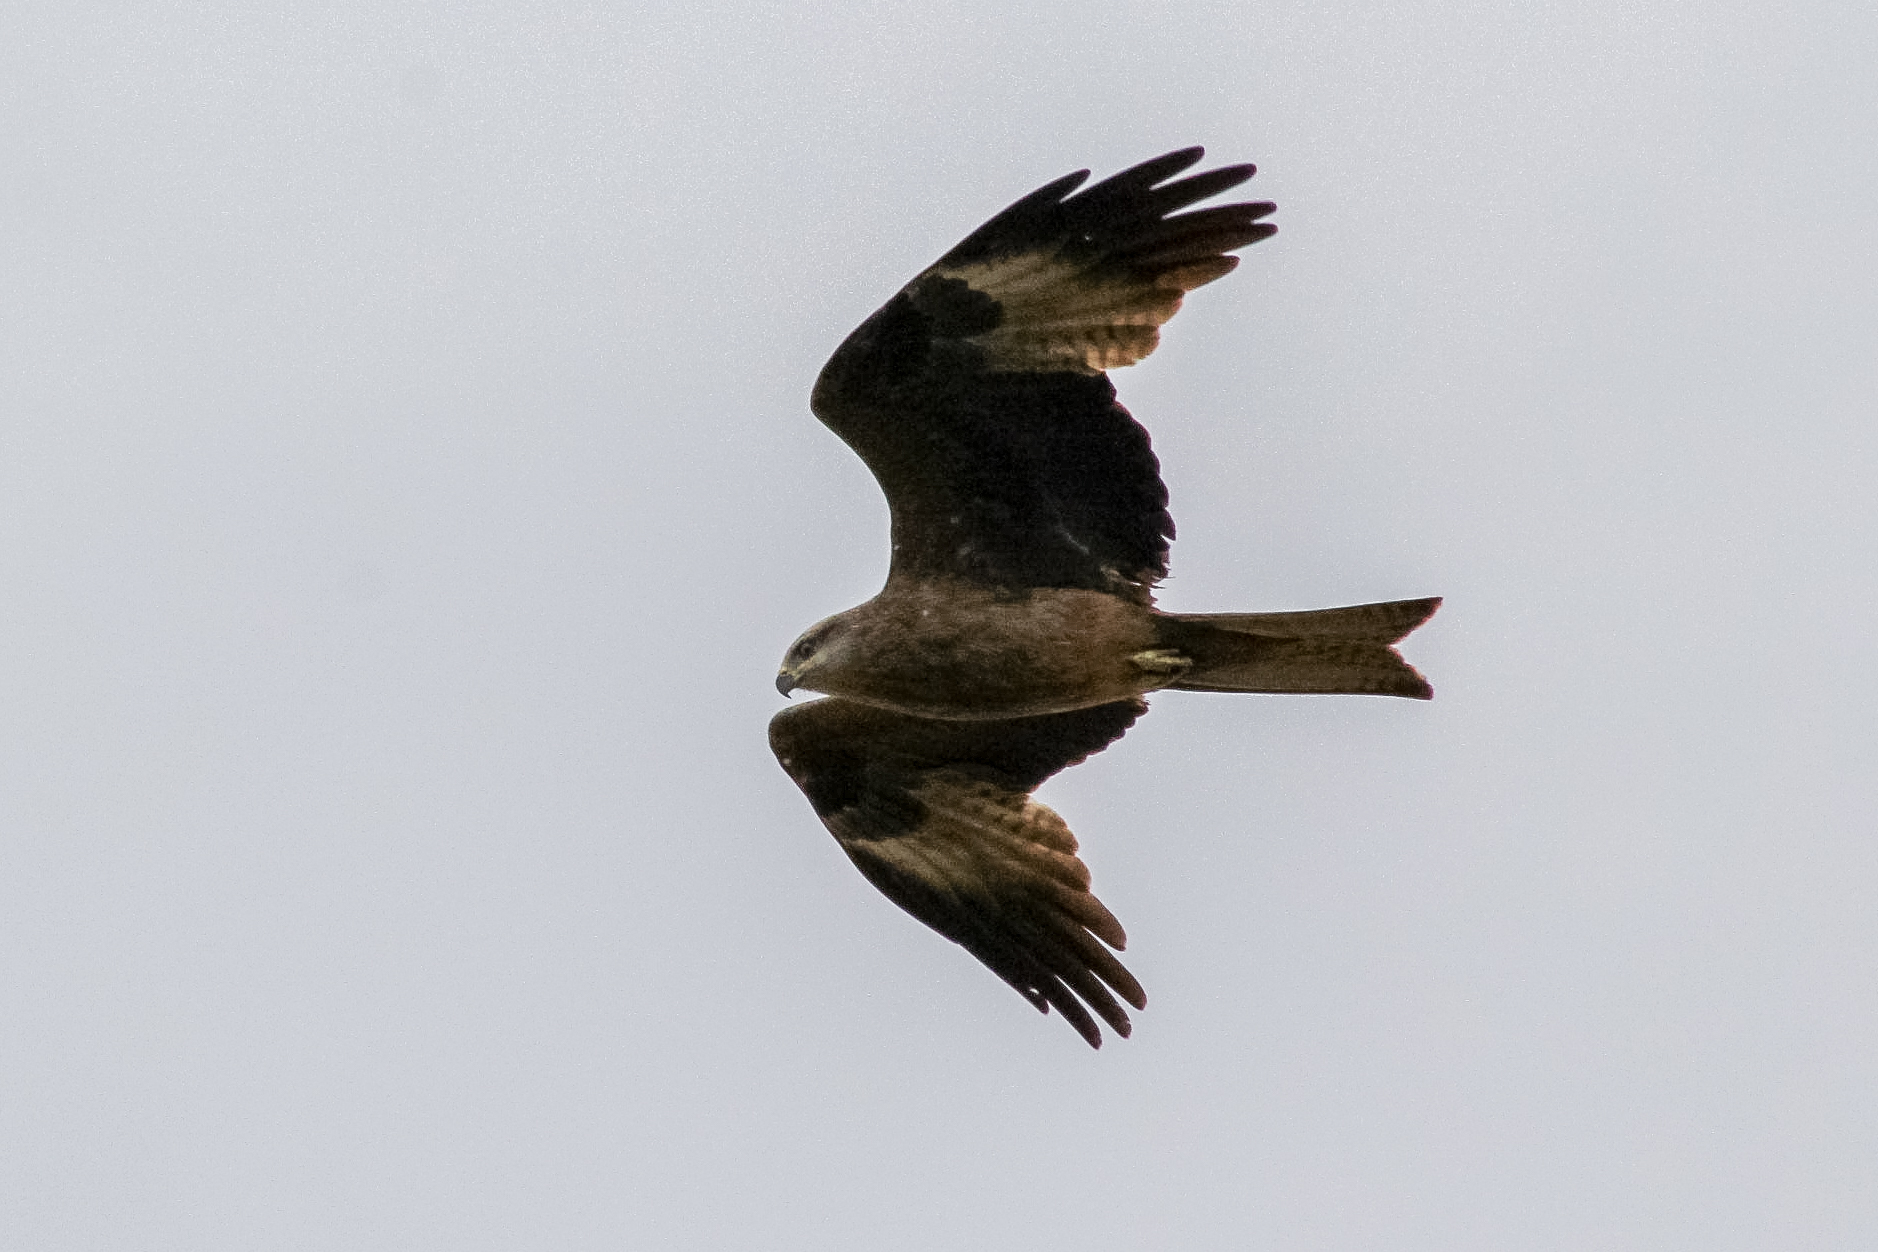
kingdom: Animalia
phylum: Chordata
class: Aves
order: Accipitriformes
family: Accipitridae
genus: Milvus
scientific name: Milvus migrans
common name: Black kite
